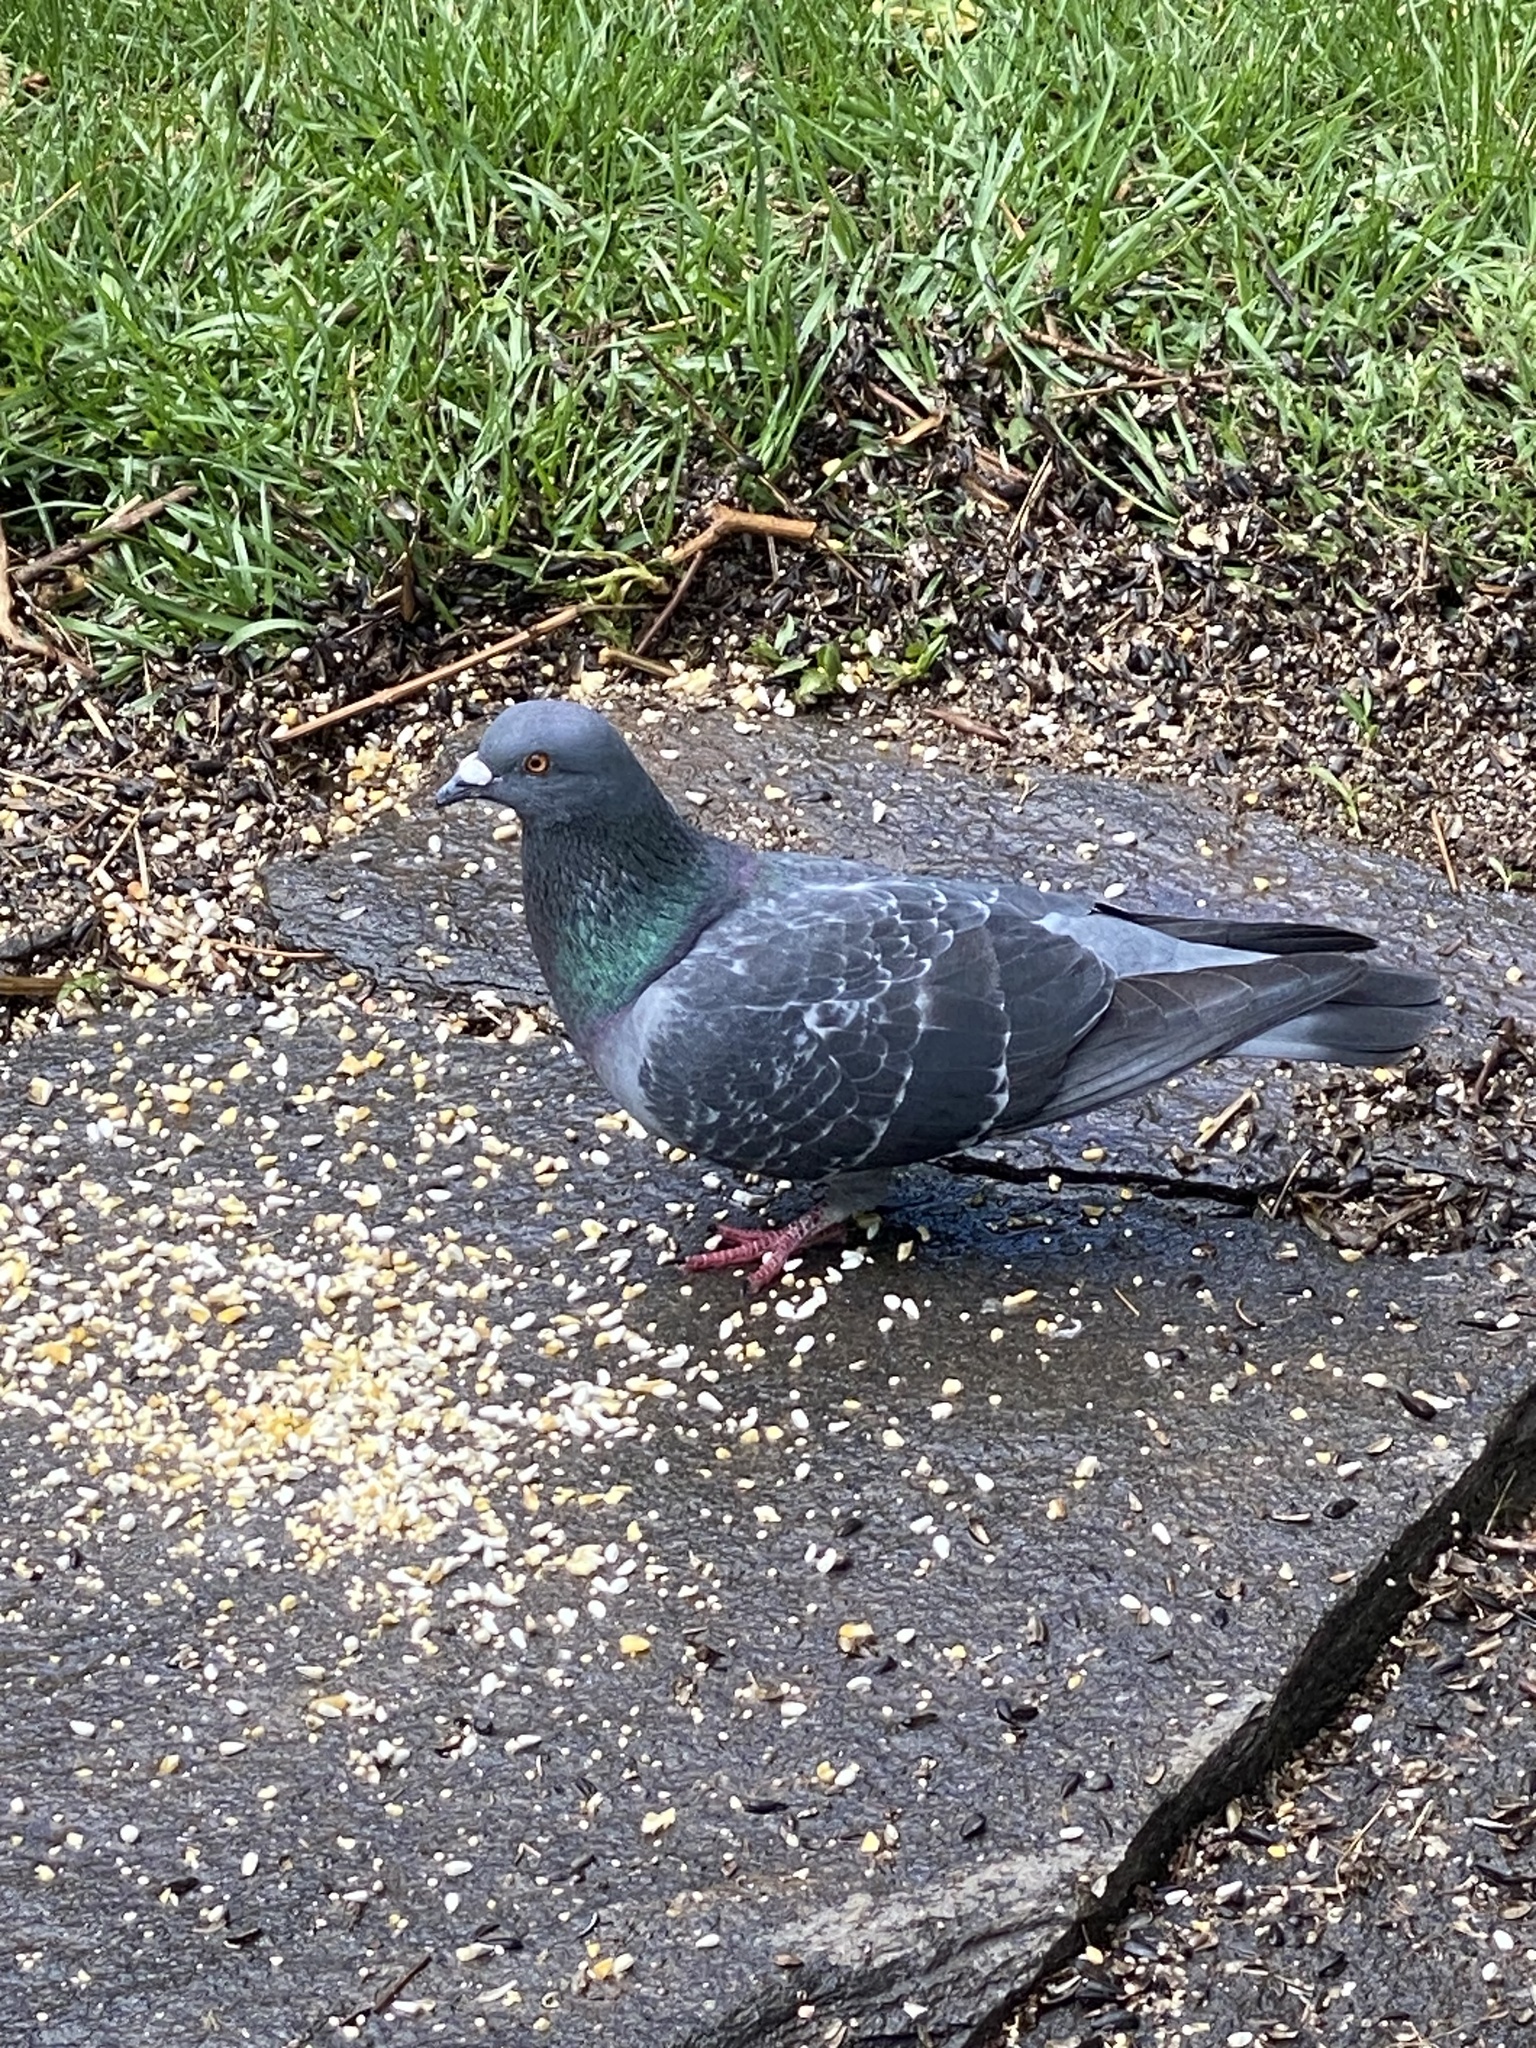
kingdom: Animalia
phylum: Chordata
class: Aves
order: Columbiformes
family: Columbidae
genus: Columba
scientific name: Columba livia
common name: Rock pigeon
